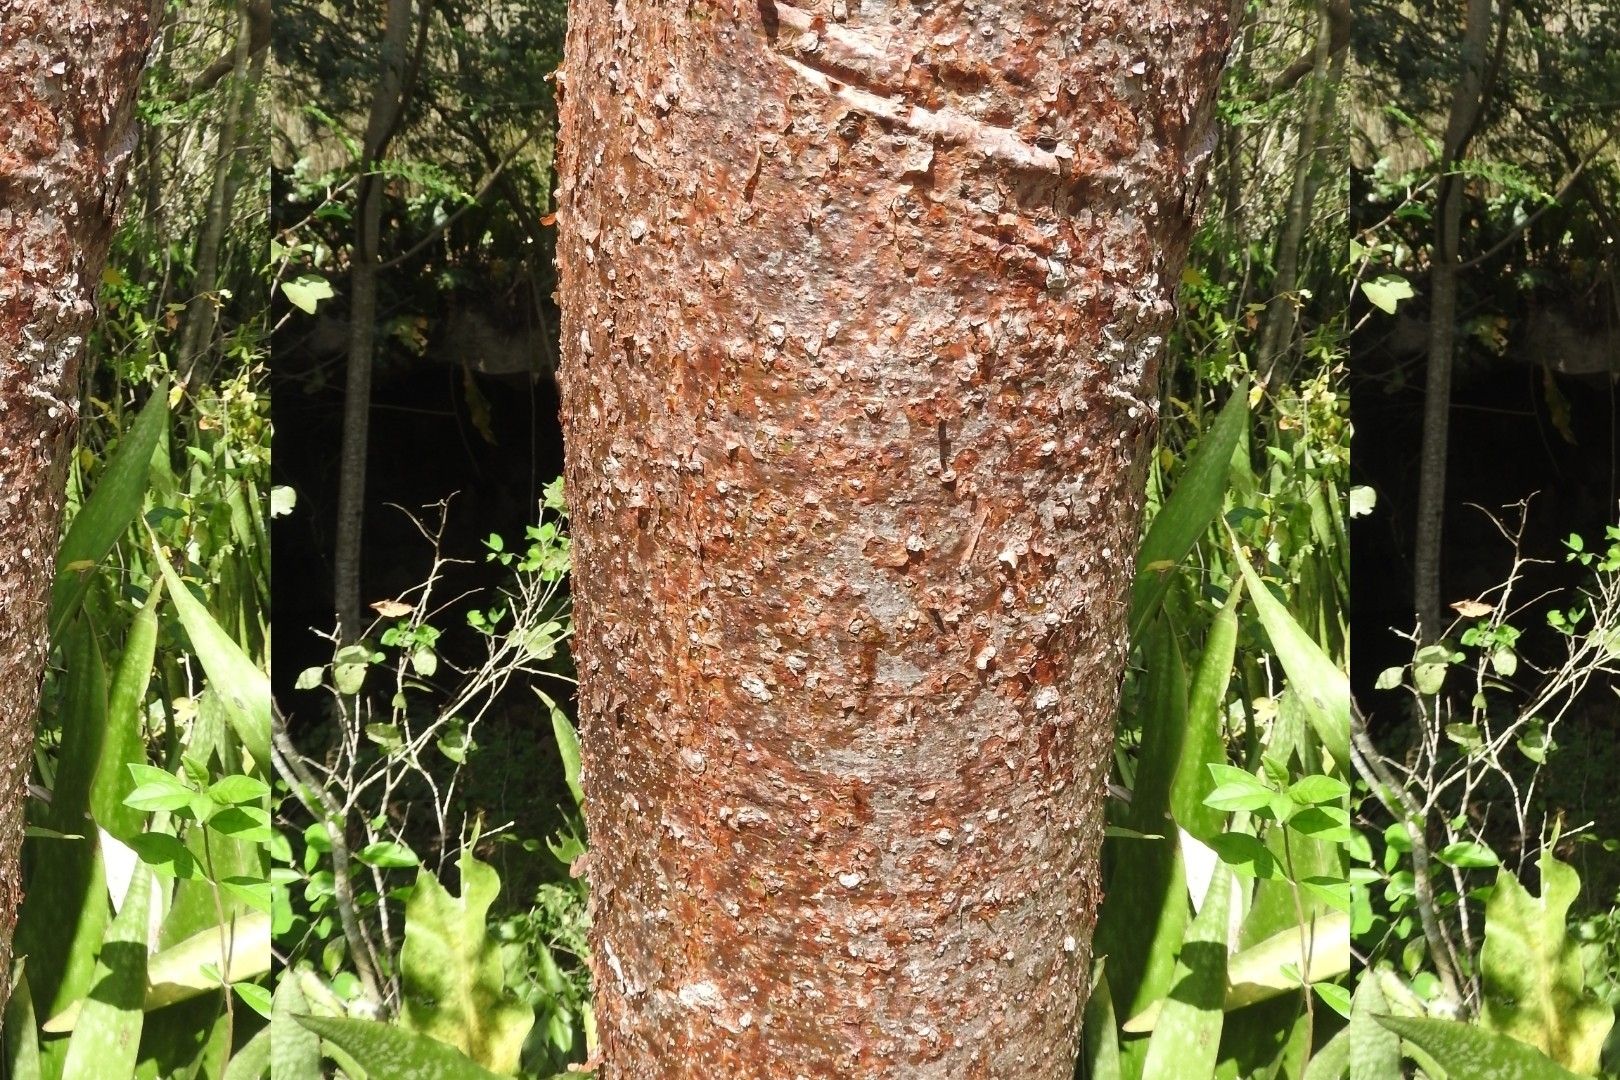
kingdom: Plantae
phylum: Tracheophyta
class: Magnoliopsida
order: Sapindales
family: Burseraceae
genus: Bursera
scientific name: Bursera simaruba
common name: Turpentine tree
